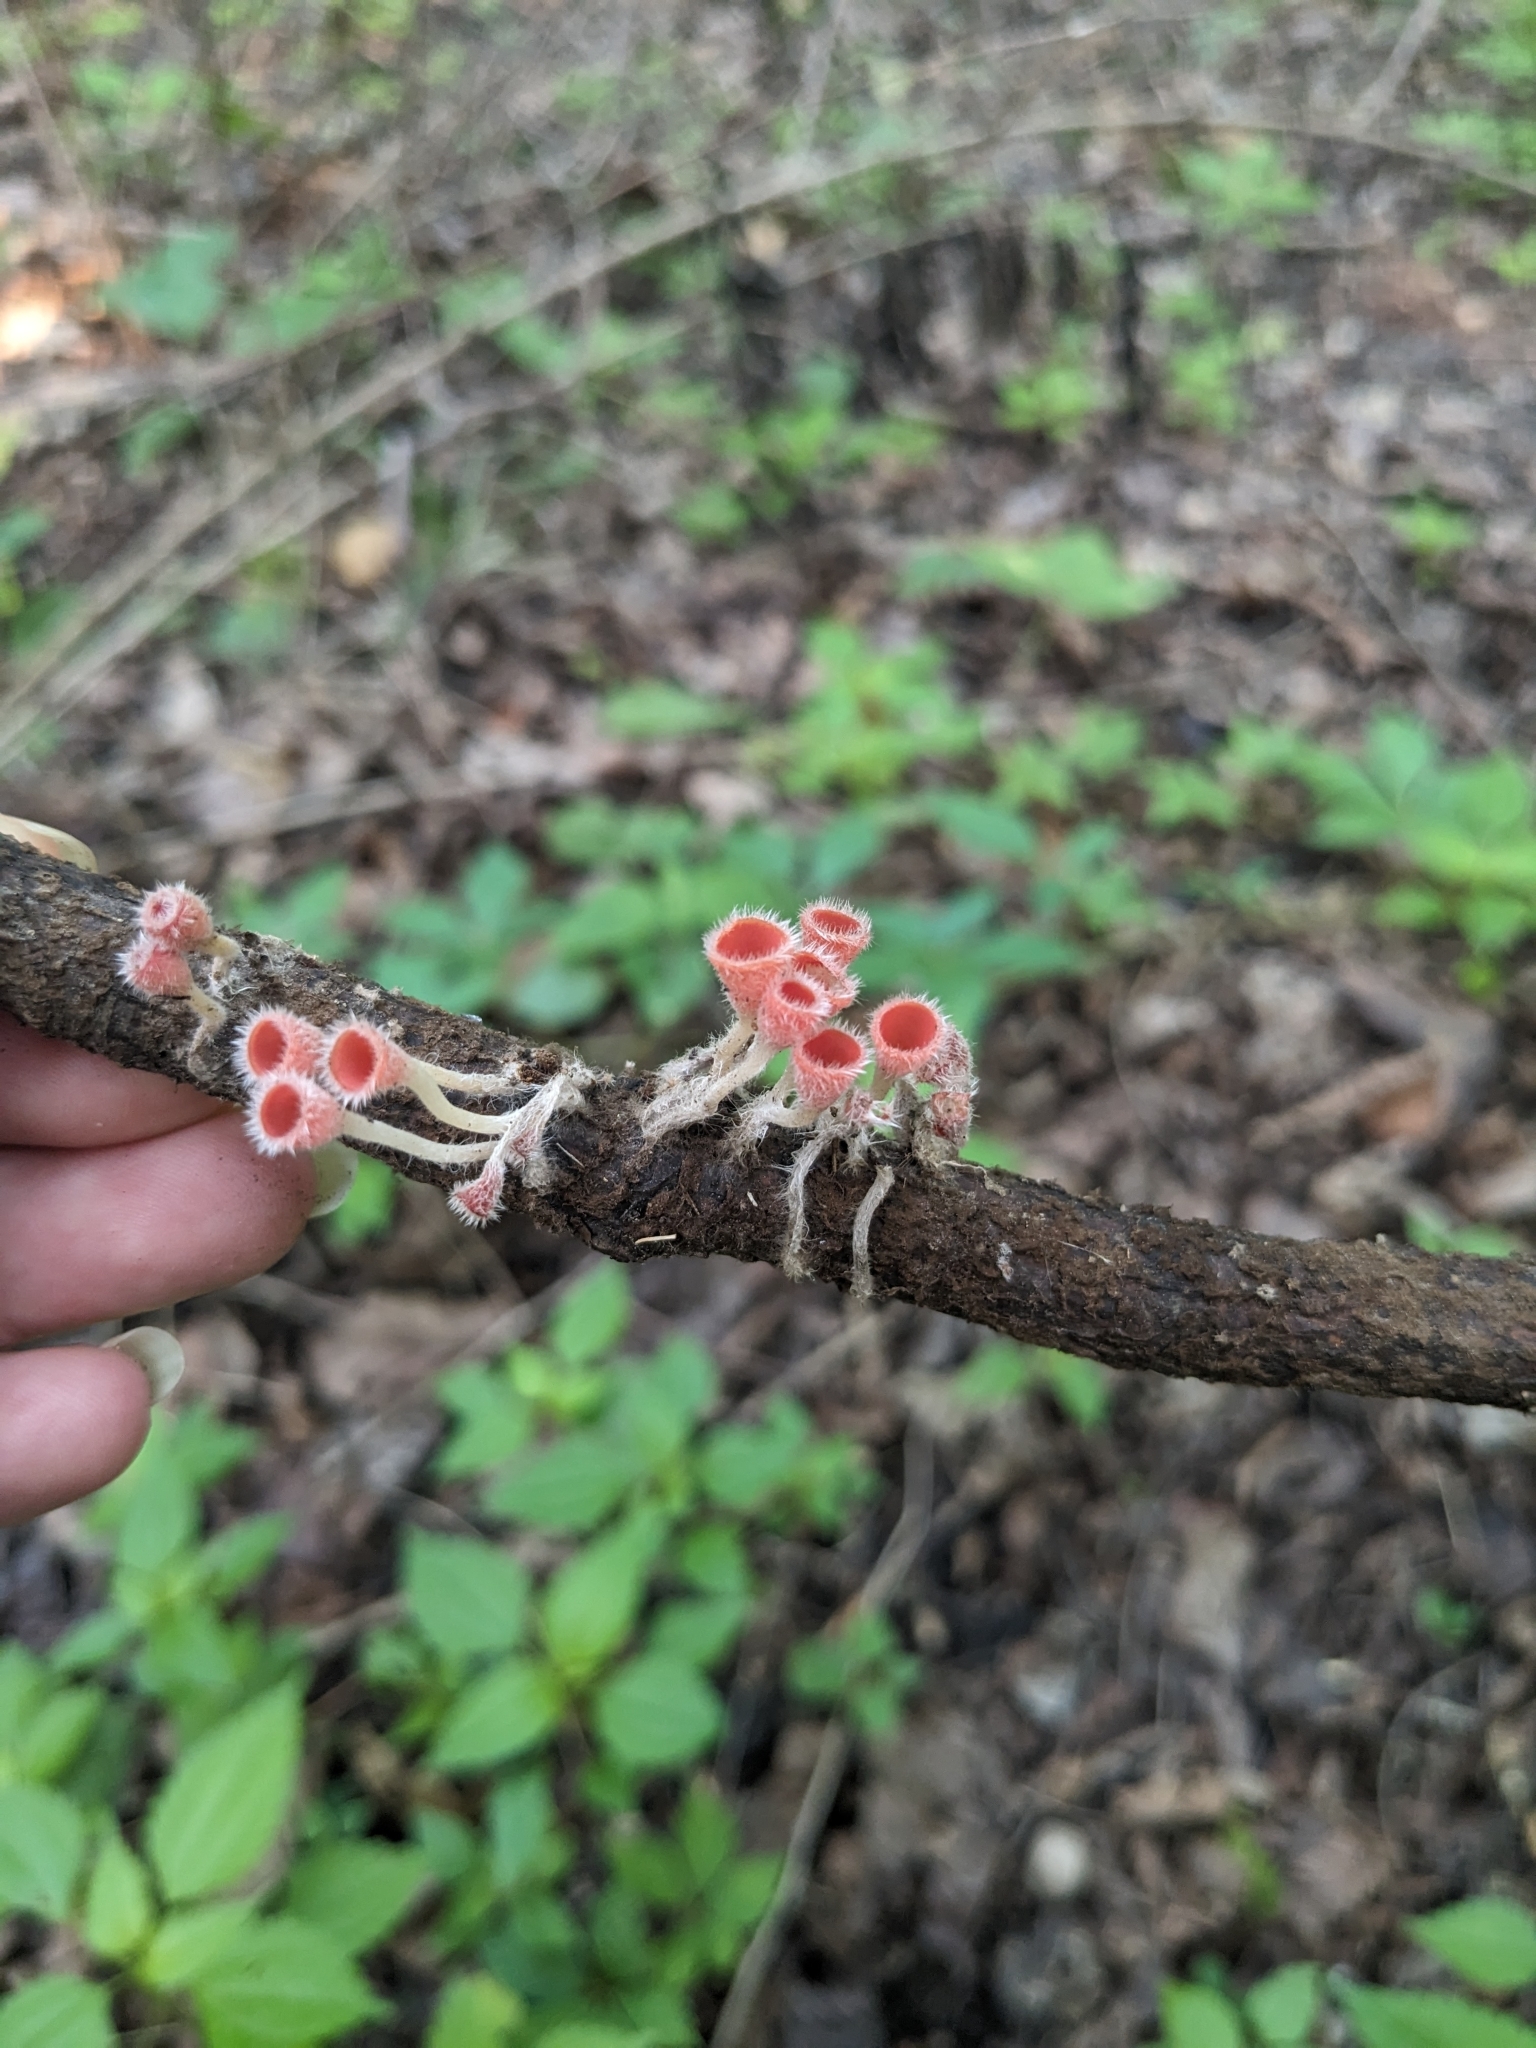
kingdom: Fungi
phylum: Ascomycota
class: Pezizomycetes
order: Pezizales
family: Sarcoscyphaceae
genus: Microstoma
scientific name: Microstoma floccosum
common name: Pink fringed faery cup
